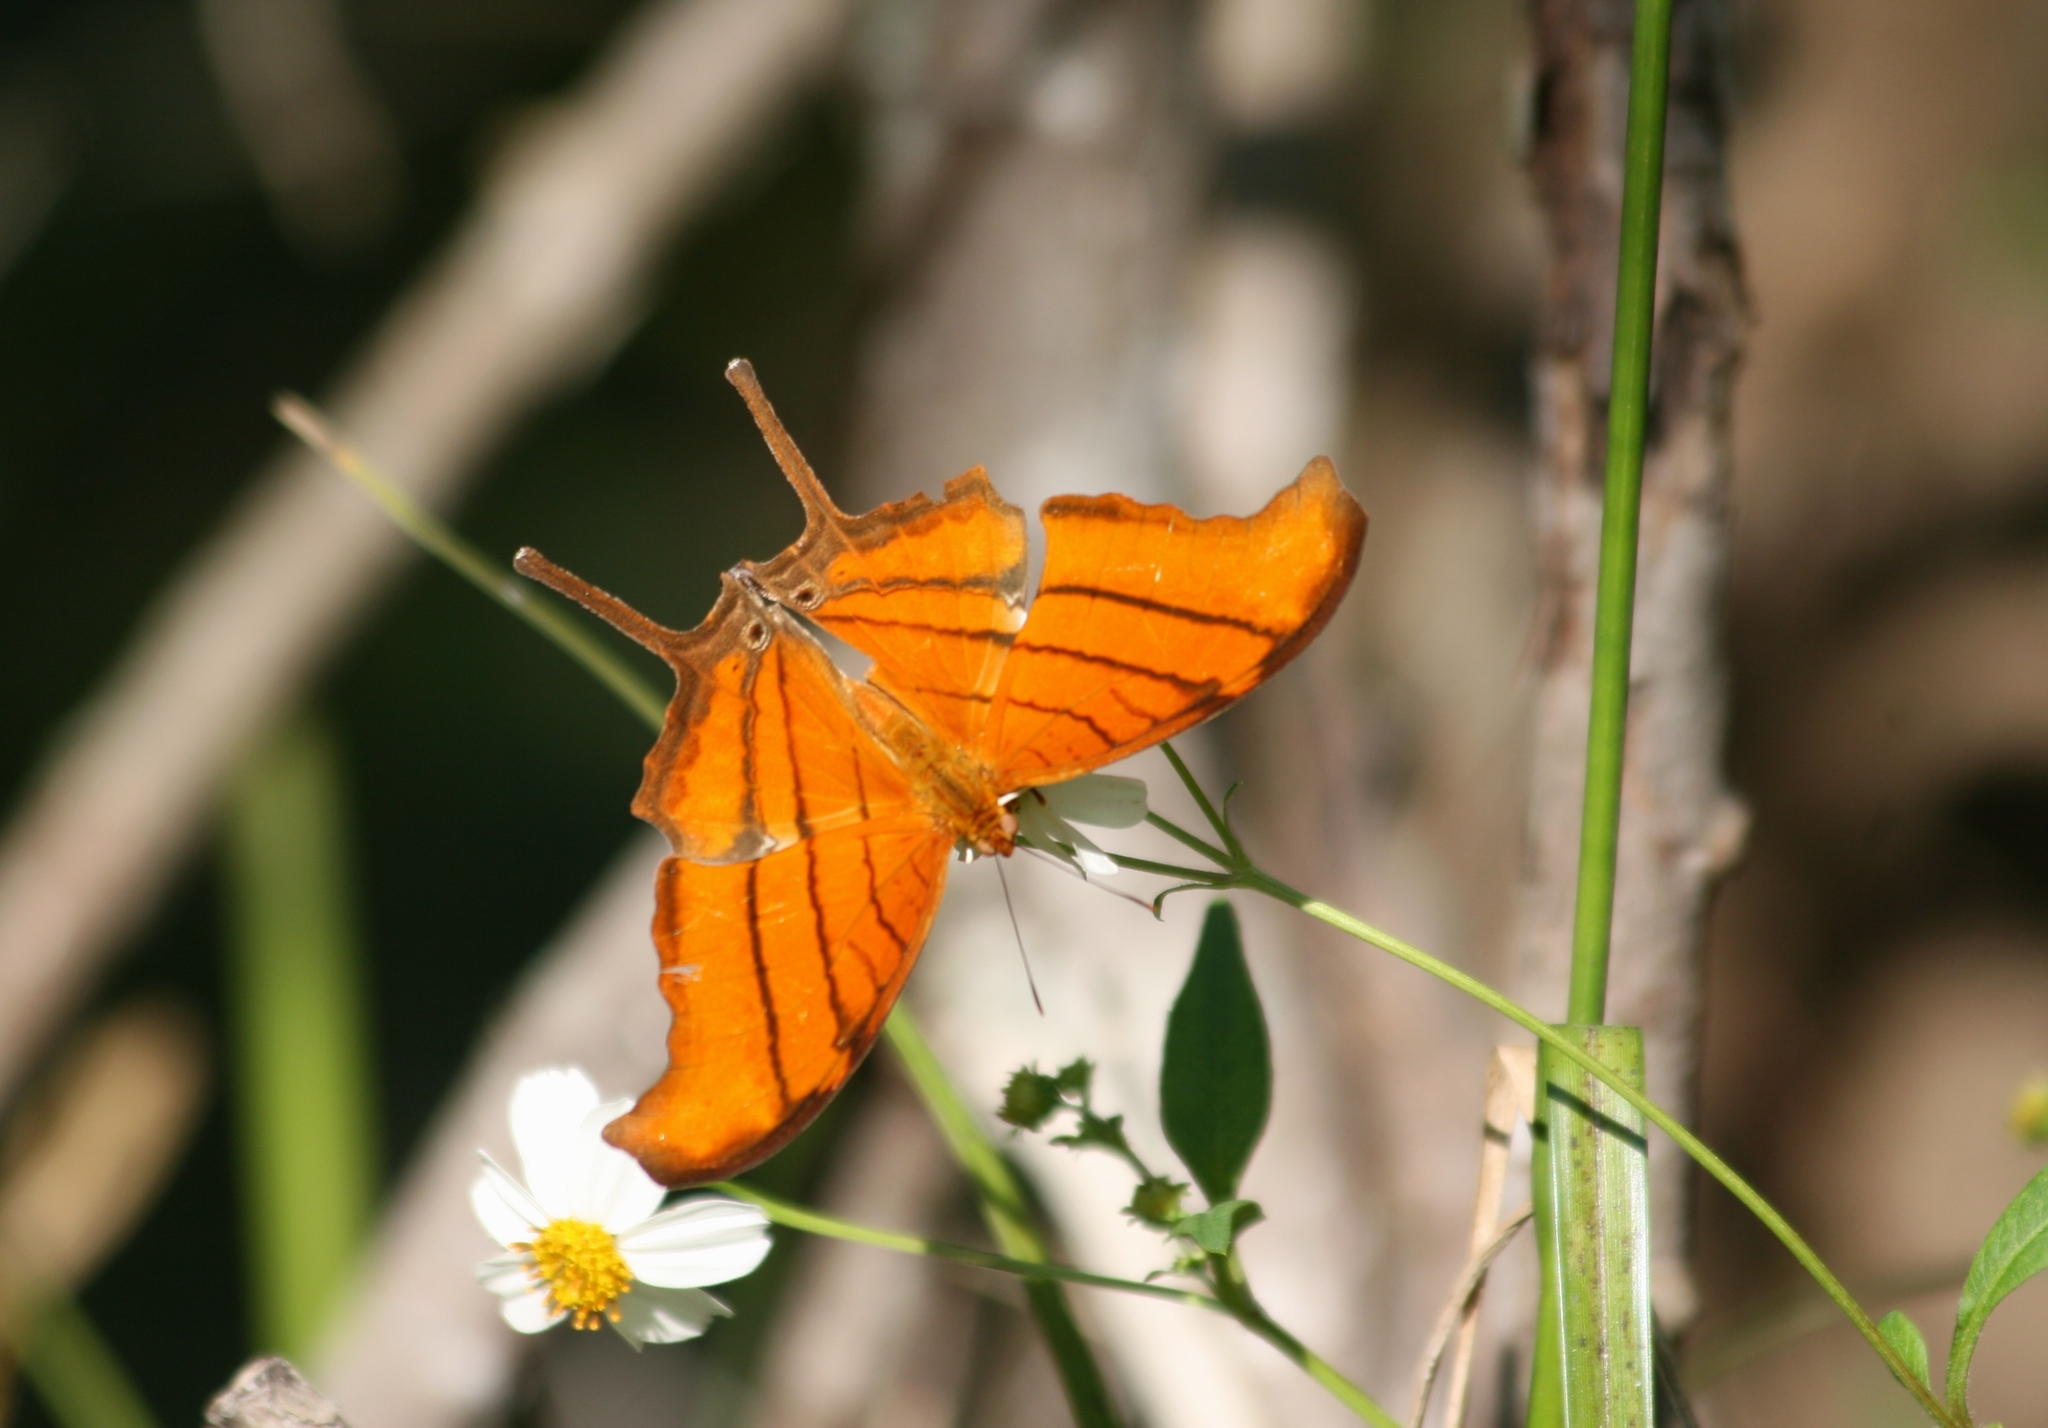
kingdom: Animalia
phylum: Arthropoda
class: Insecta
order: Lepidoptera
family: Nymphalidae
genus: Marpesia
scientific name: Marpesia petreus
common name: Red dagger wing
